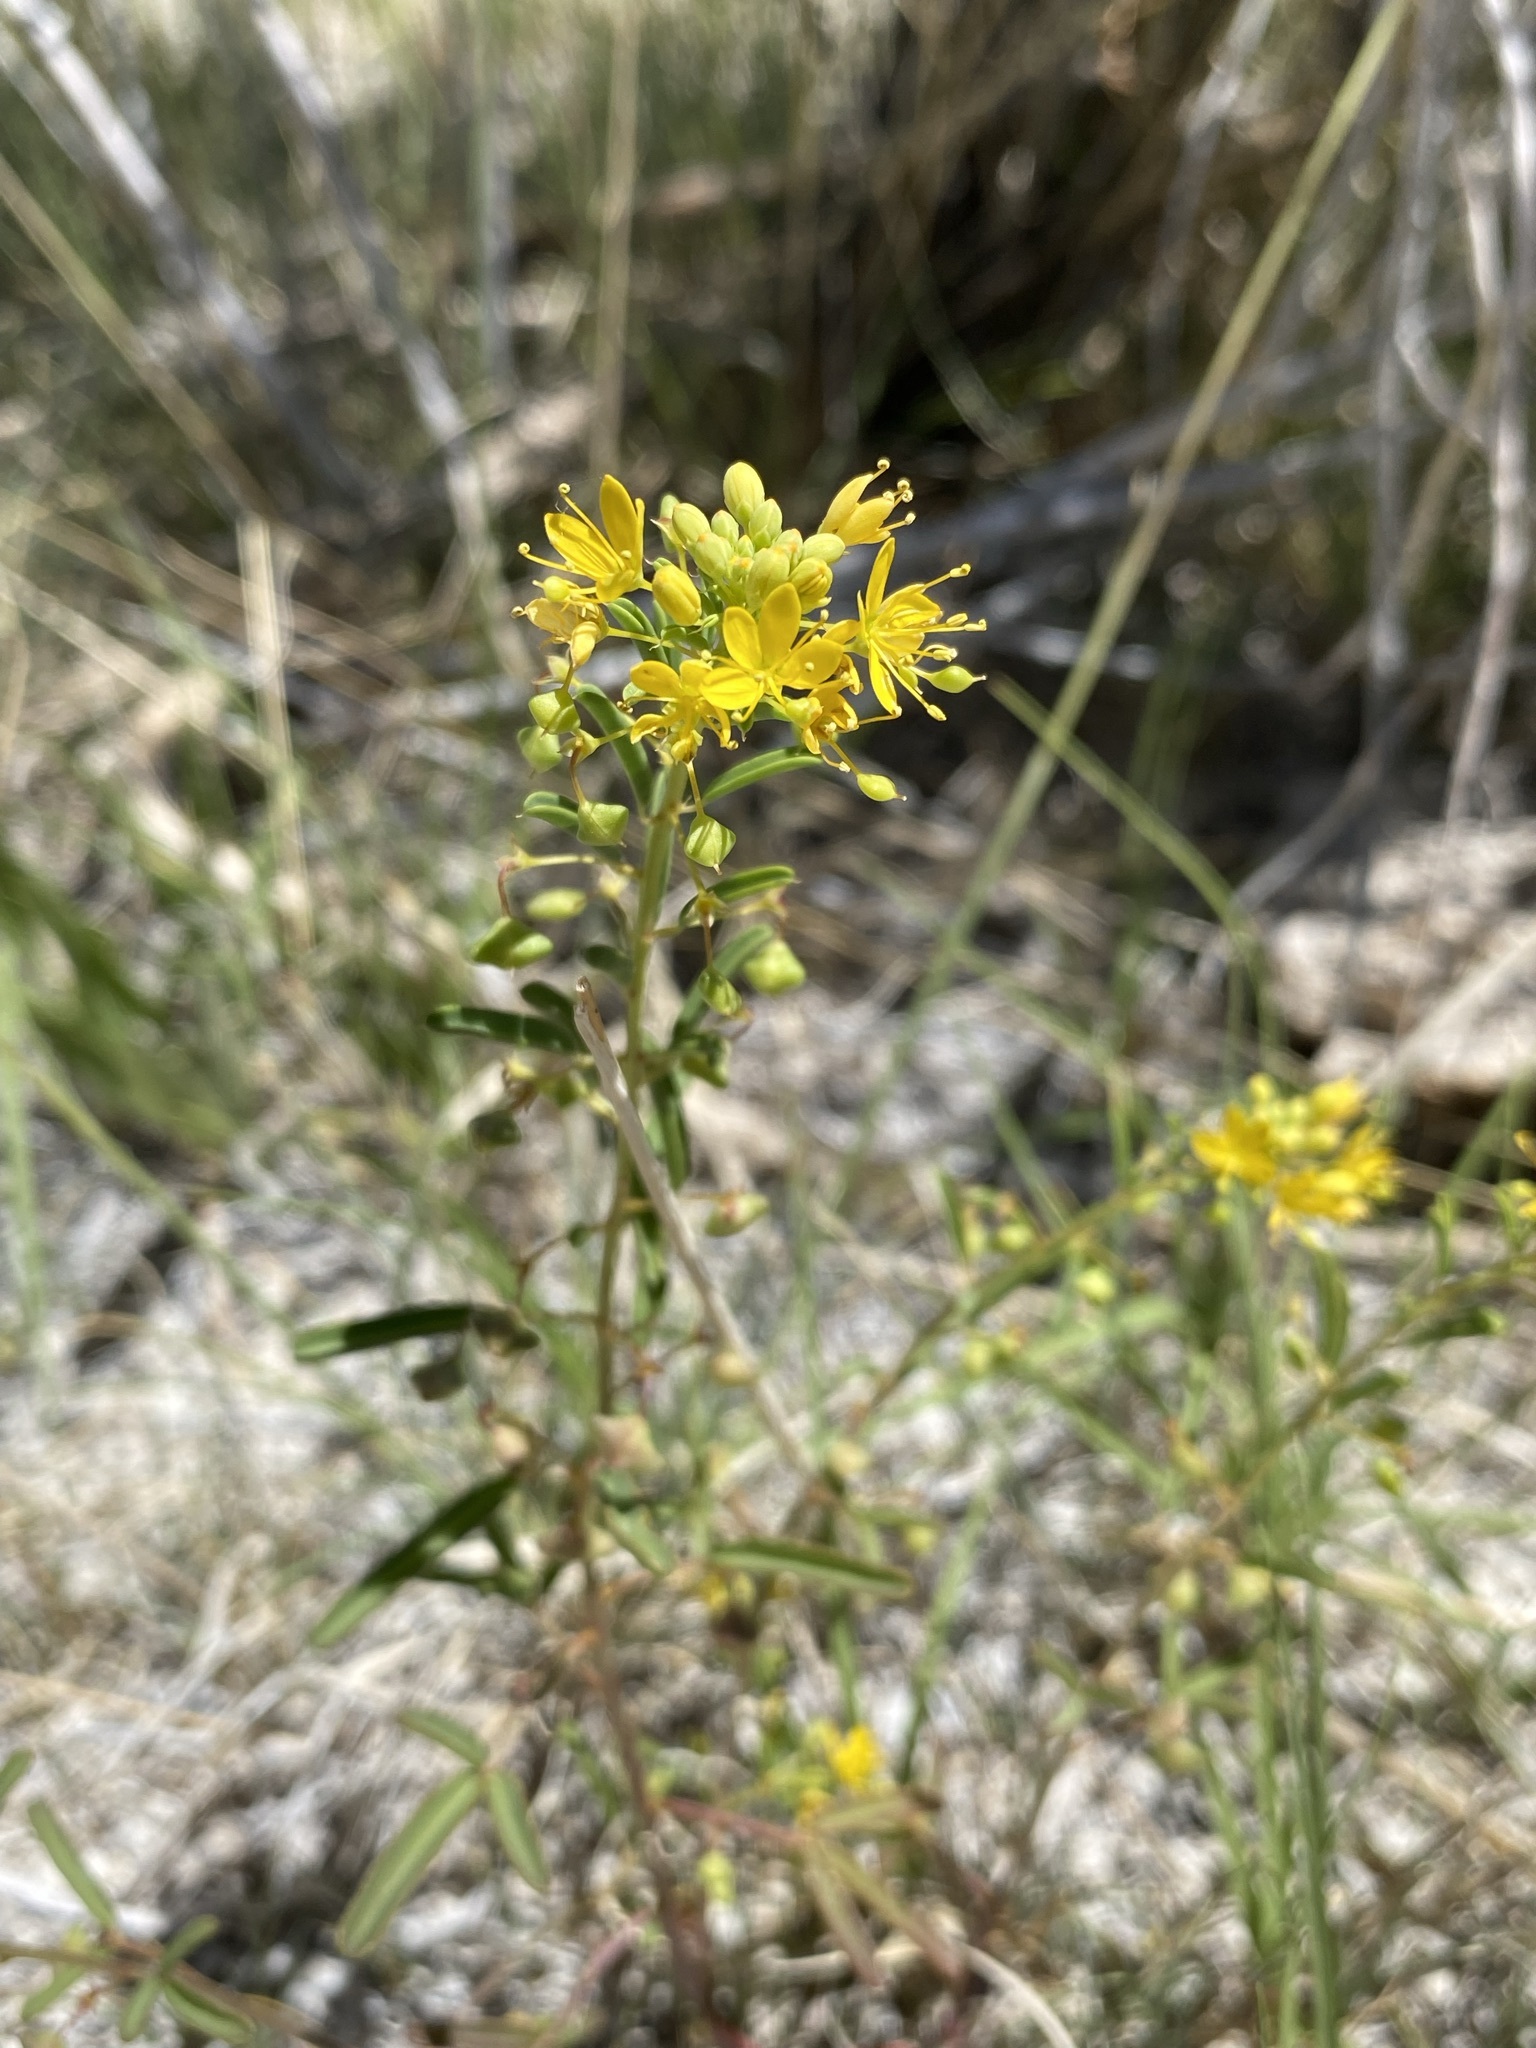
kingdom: Plantae
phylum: Tracheophyta
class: Magnoliopsida
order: Brassicales
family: Cleomaceae
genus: Cleomella
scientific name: Cleomella plocasperma
